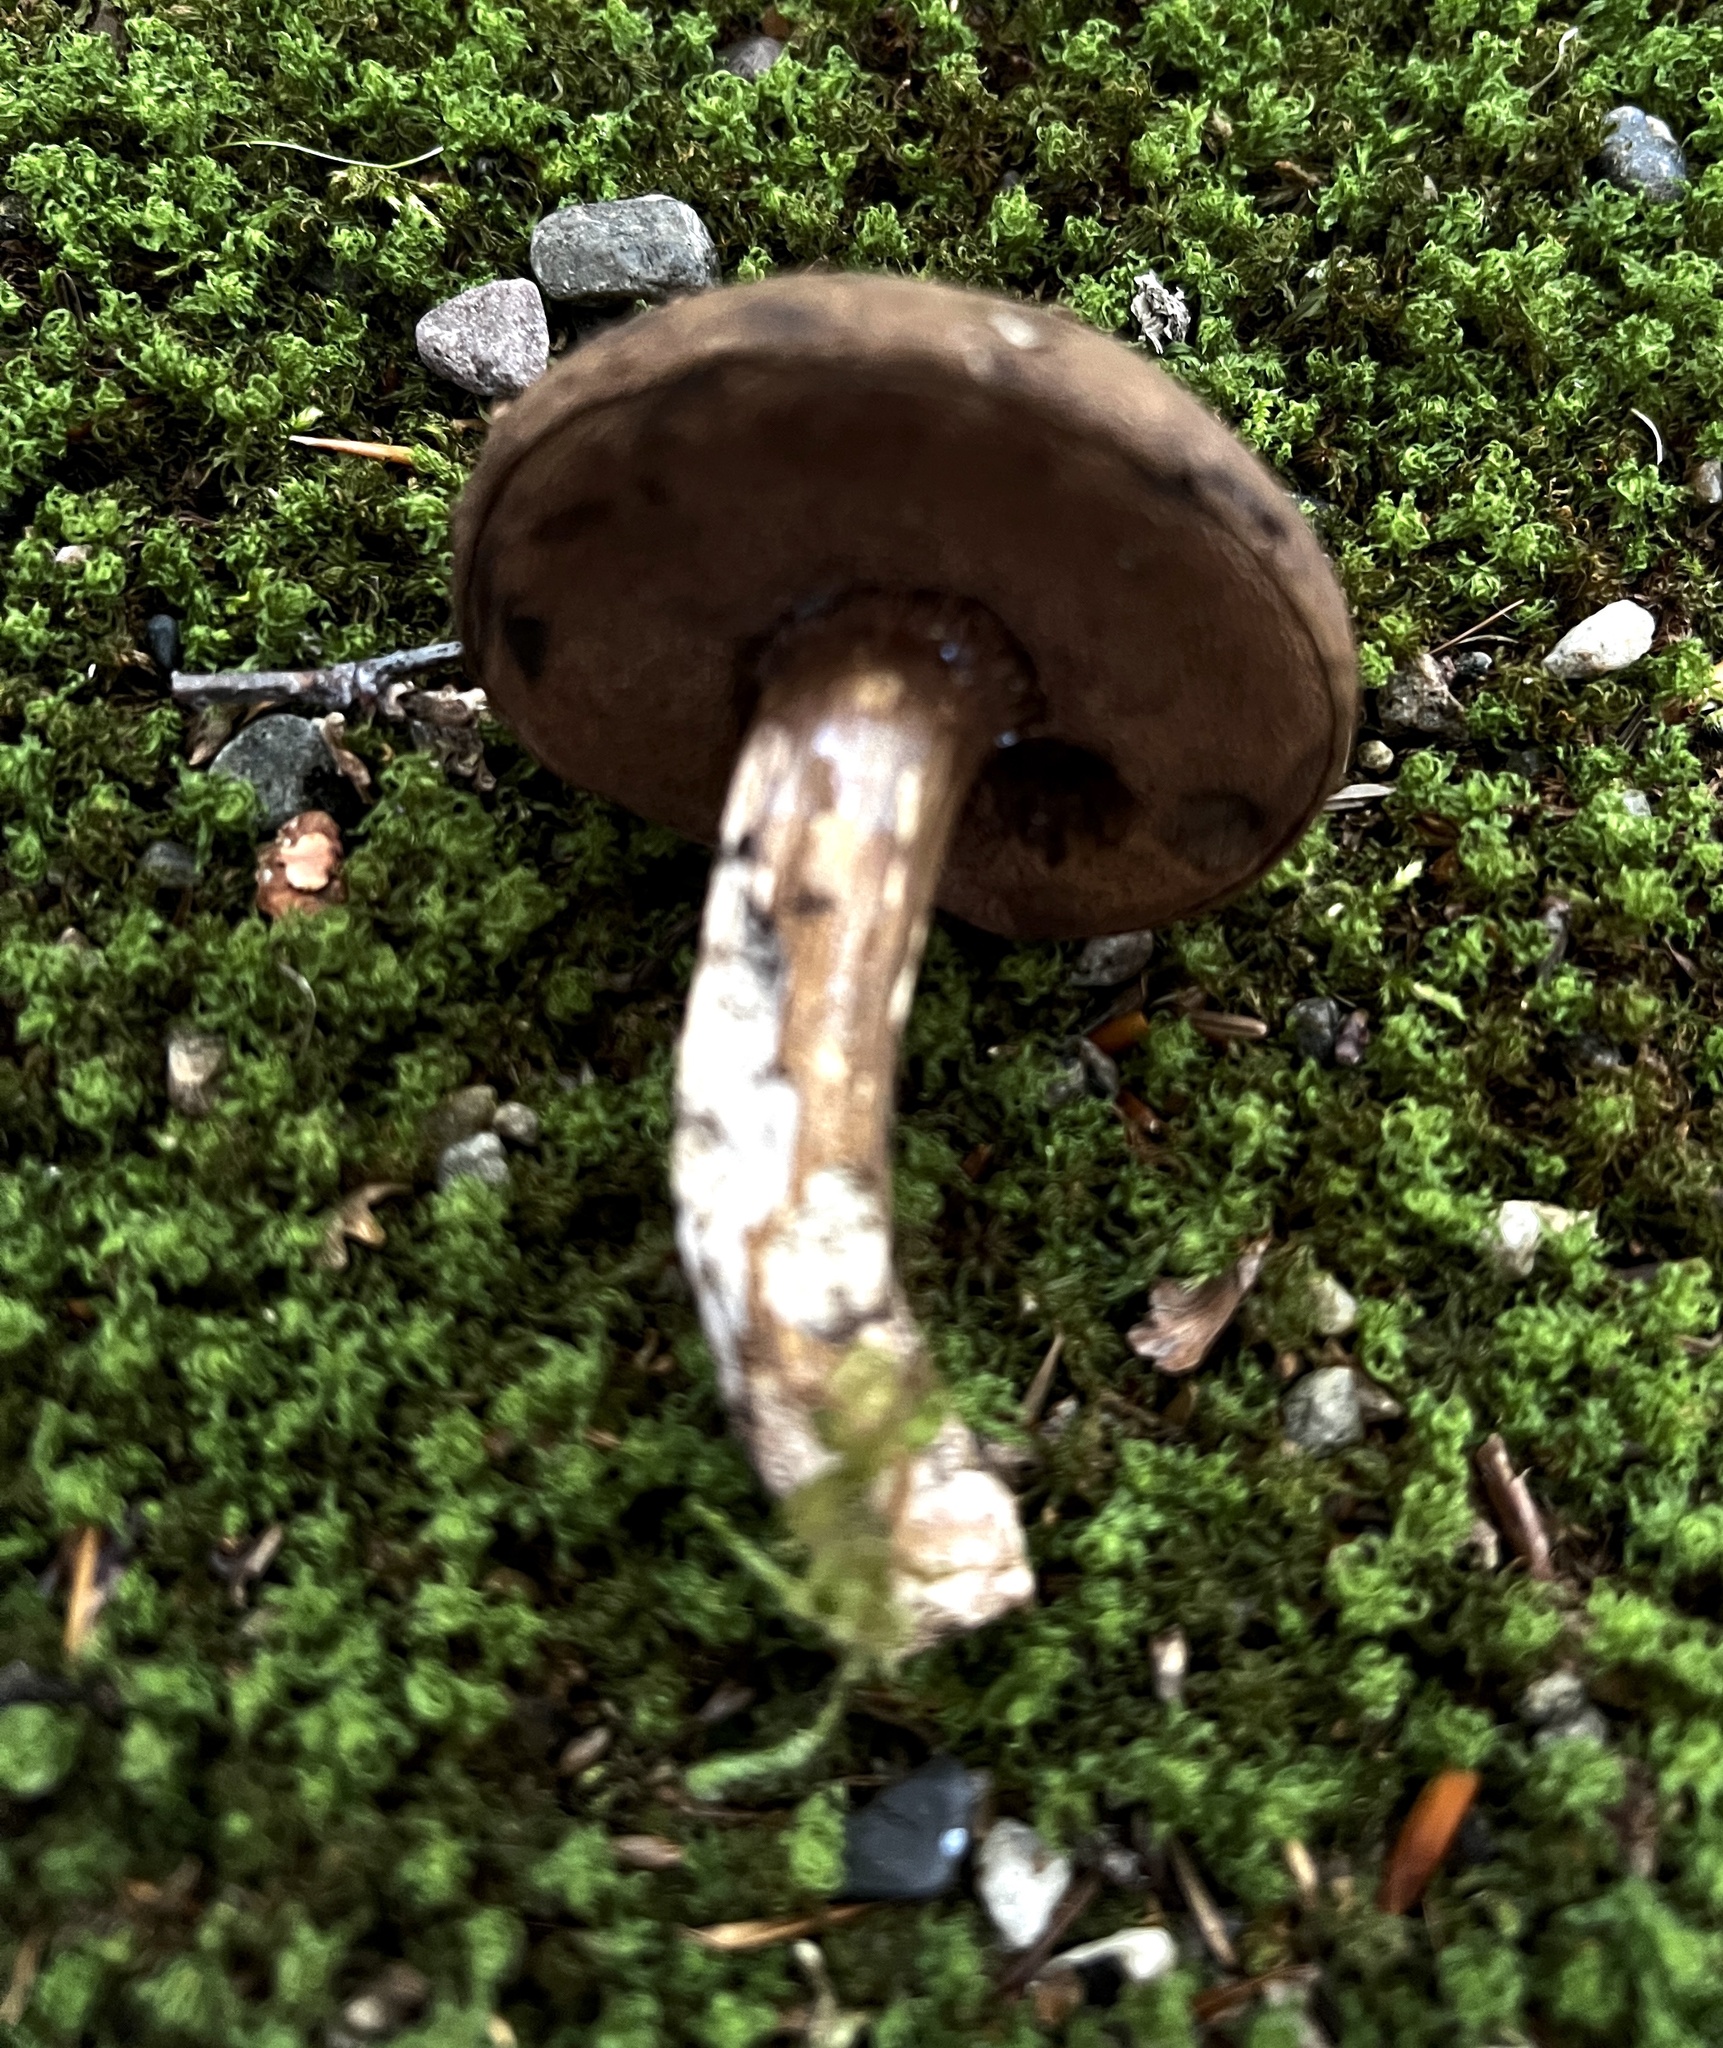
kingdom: Fungi
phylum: Basidiomycota
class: Agaricomycetes
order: Boletales
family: Boletaceae
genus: Porphyrellus
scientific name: Porphyrellus porphyrosporus
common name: Dusky bolete
